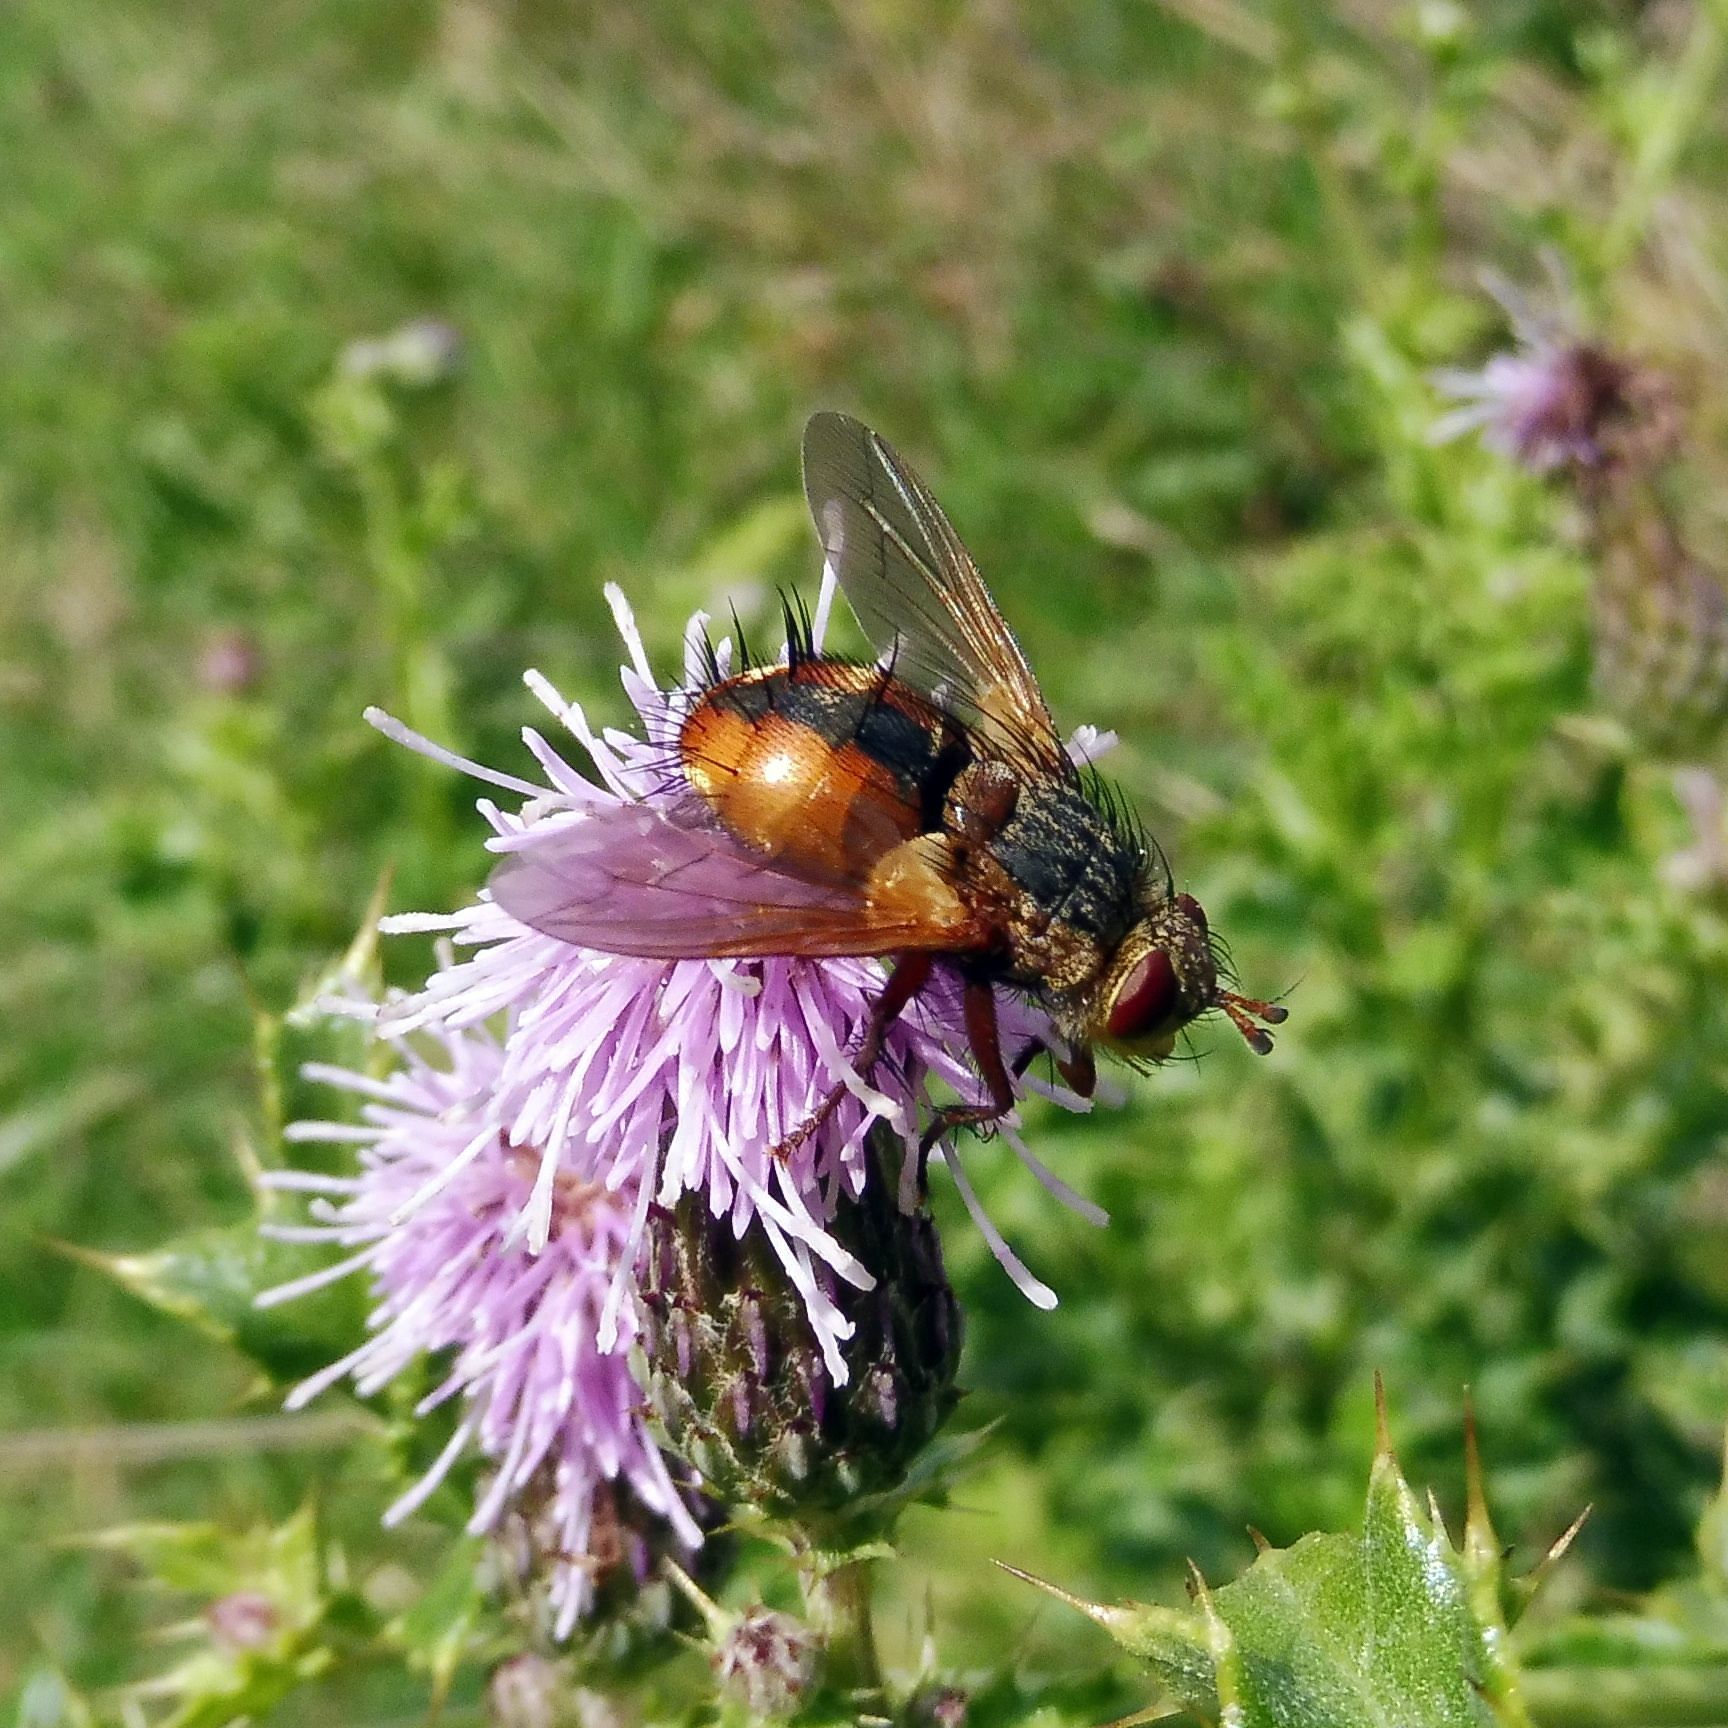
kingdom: Animalia
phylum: Arthropoda
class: Insecta
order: Diptera
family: Tachinidae
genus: Tachina
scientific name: Tachina fera
